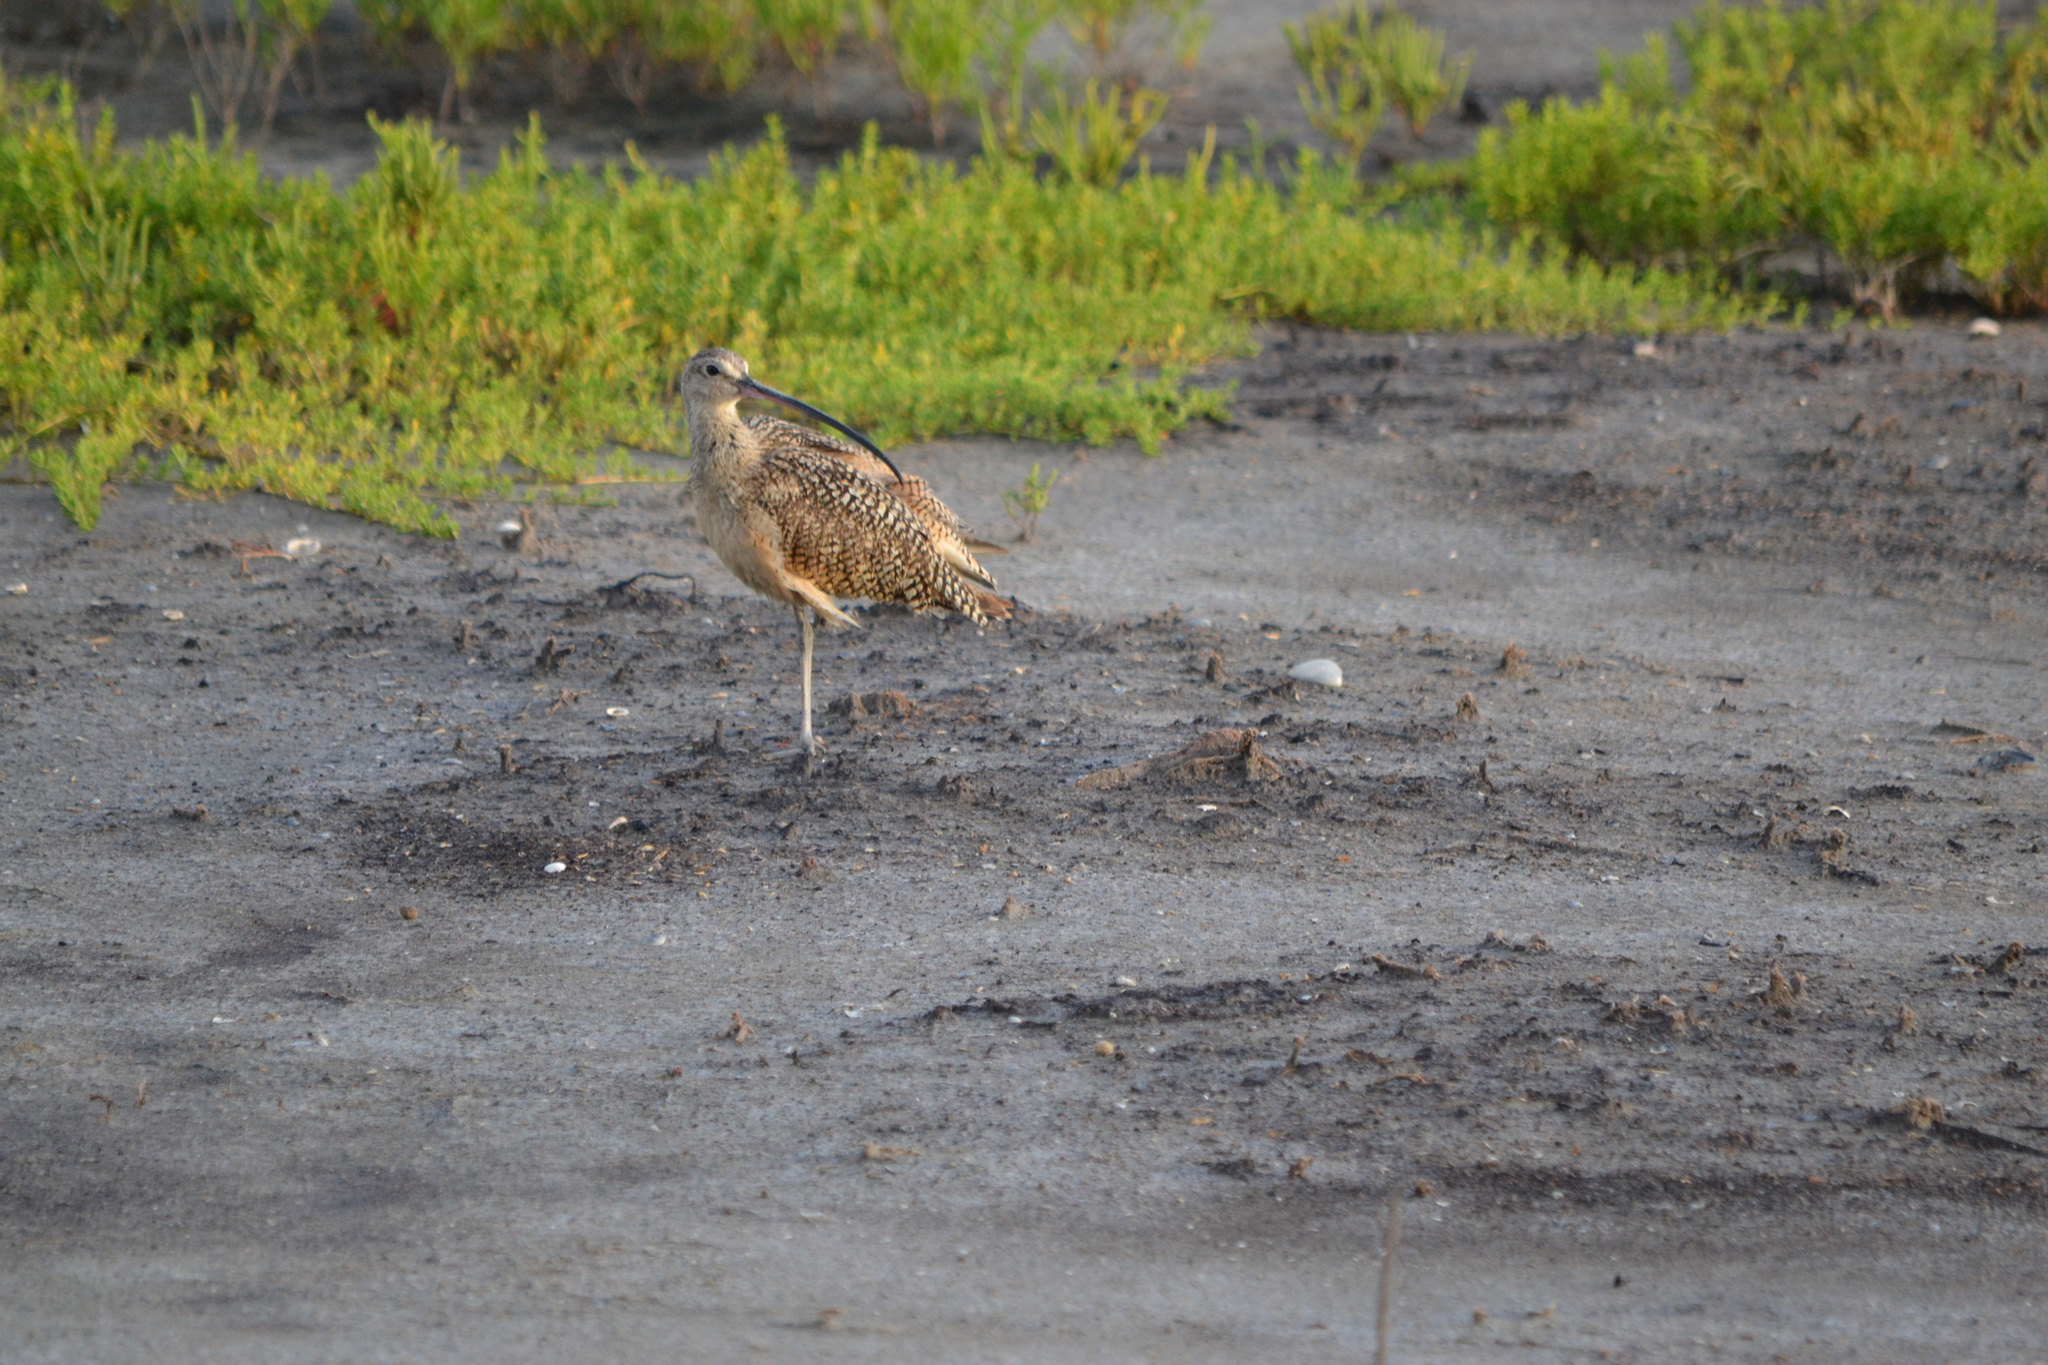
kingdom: Animalia
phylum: Chordata
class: Aves
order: Charadriiformes
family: Scolopacidae
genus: Numenius
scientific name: Numenius americanus
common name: Long-billed curlew
